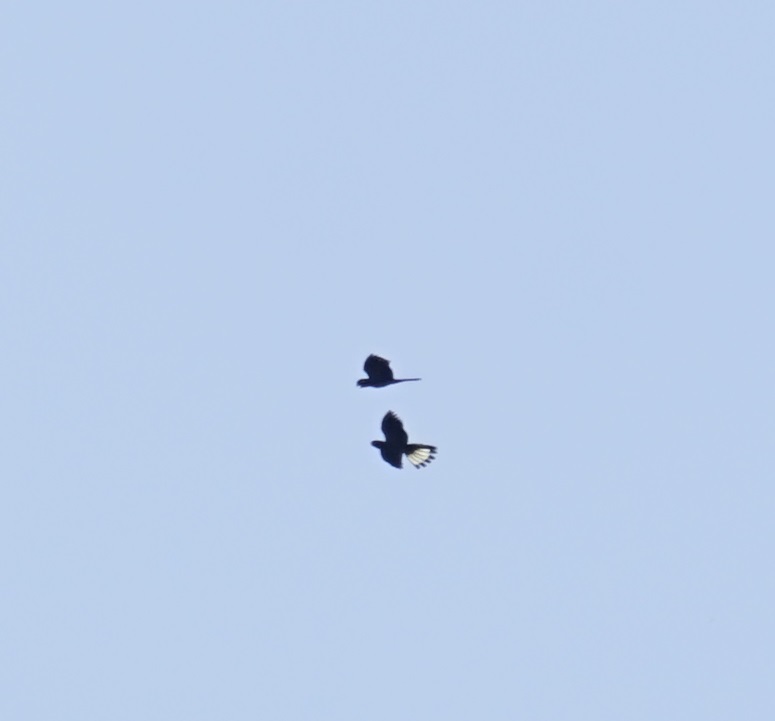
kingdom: Animalia
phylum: Chordata
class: Aves
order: Psittaciformes
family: Cacatuidae
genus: Zanda
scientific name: Zanda funerea
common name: Yellow-tailed black-cockatoo
